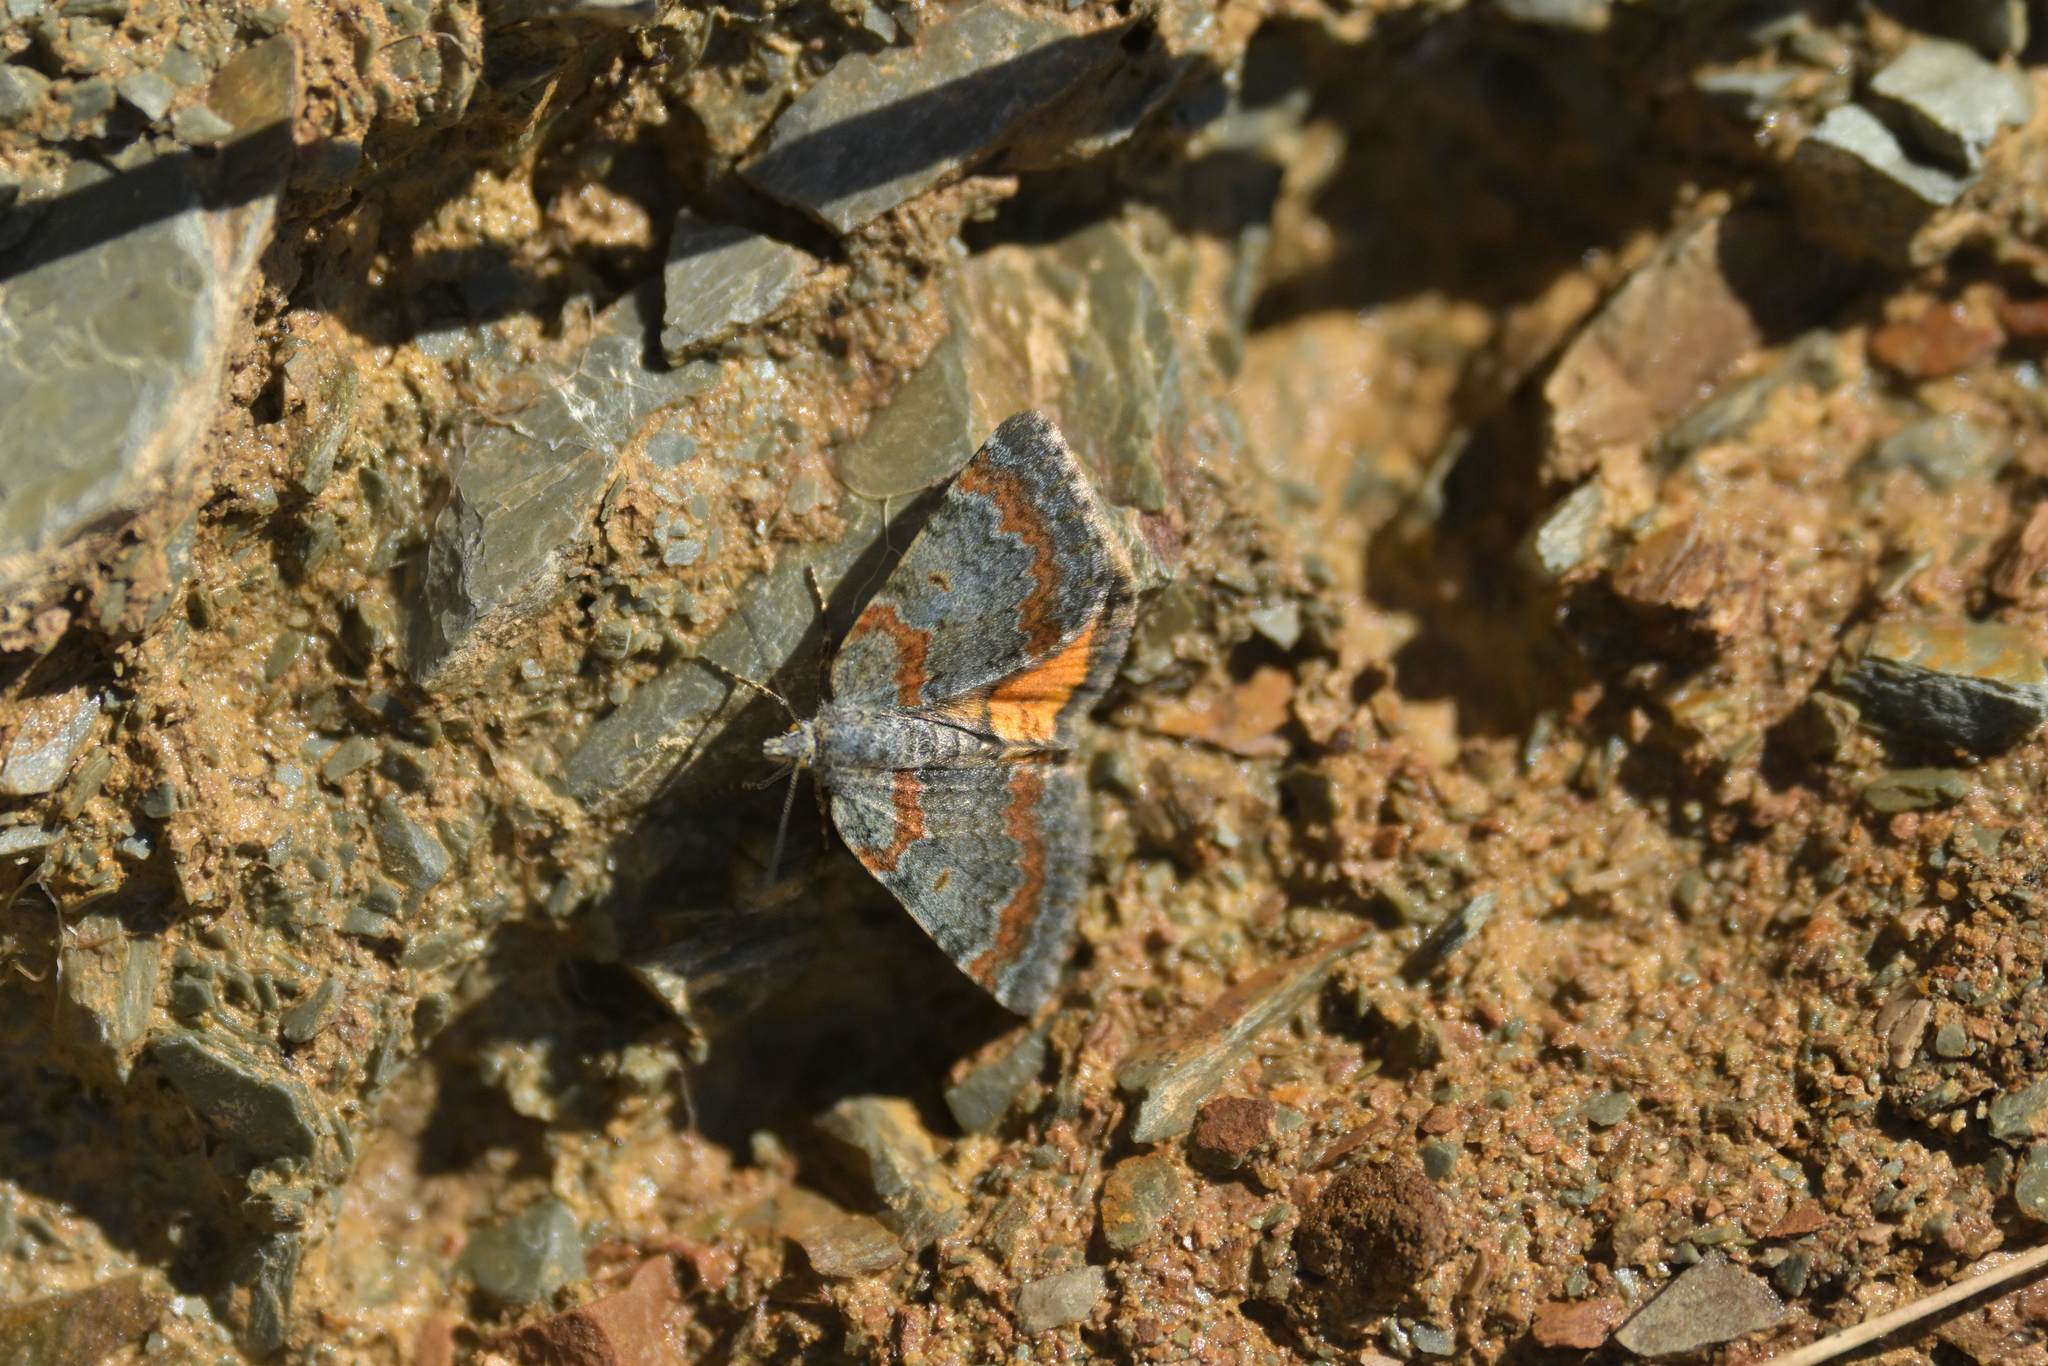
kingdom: Animalia
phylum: Arthropoda
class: Insecta
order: Lepidoptera
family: Geometridae
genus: Paranotoreas
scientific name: Paranotoreas brephosata
